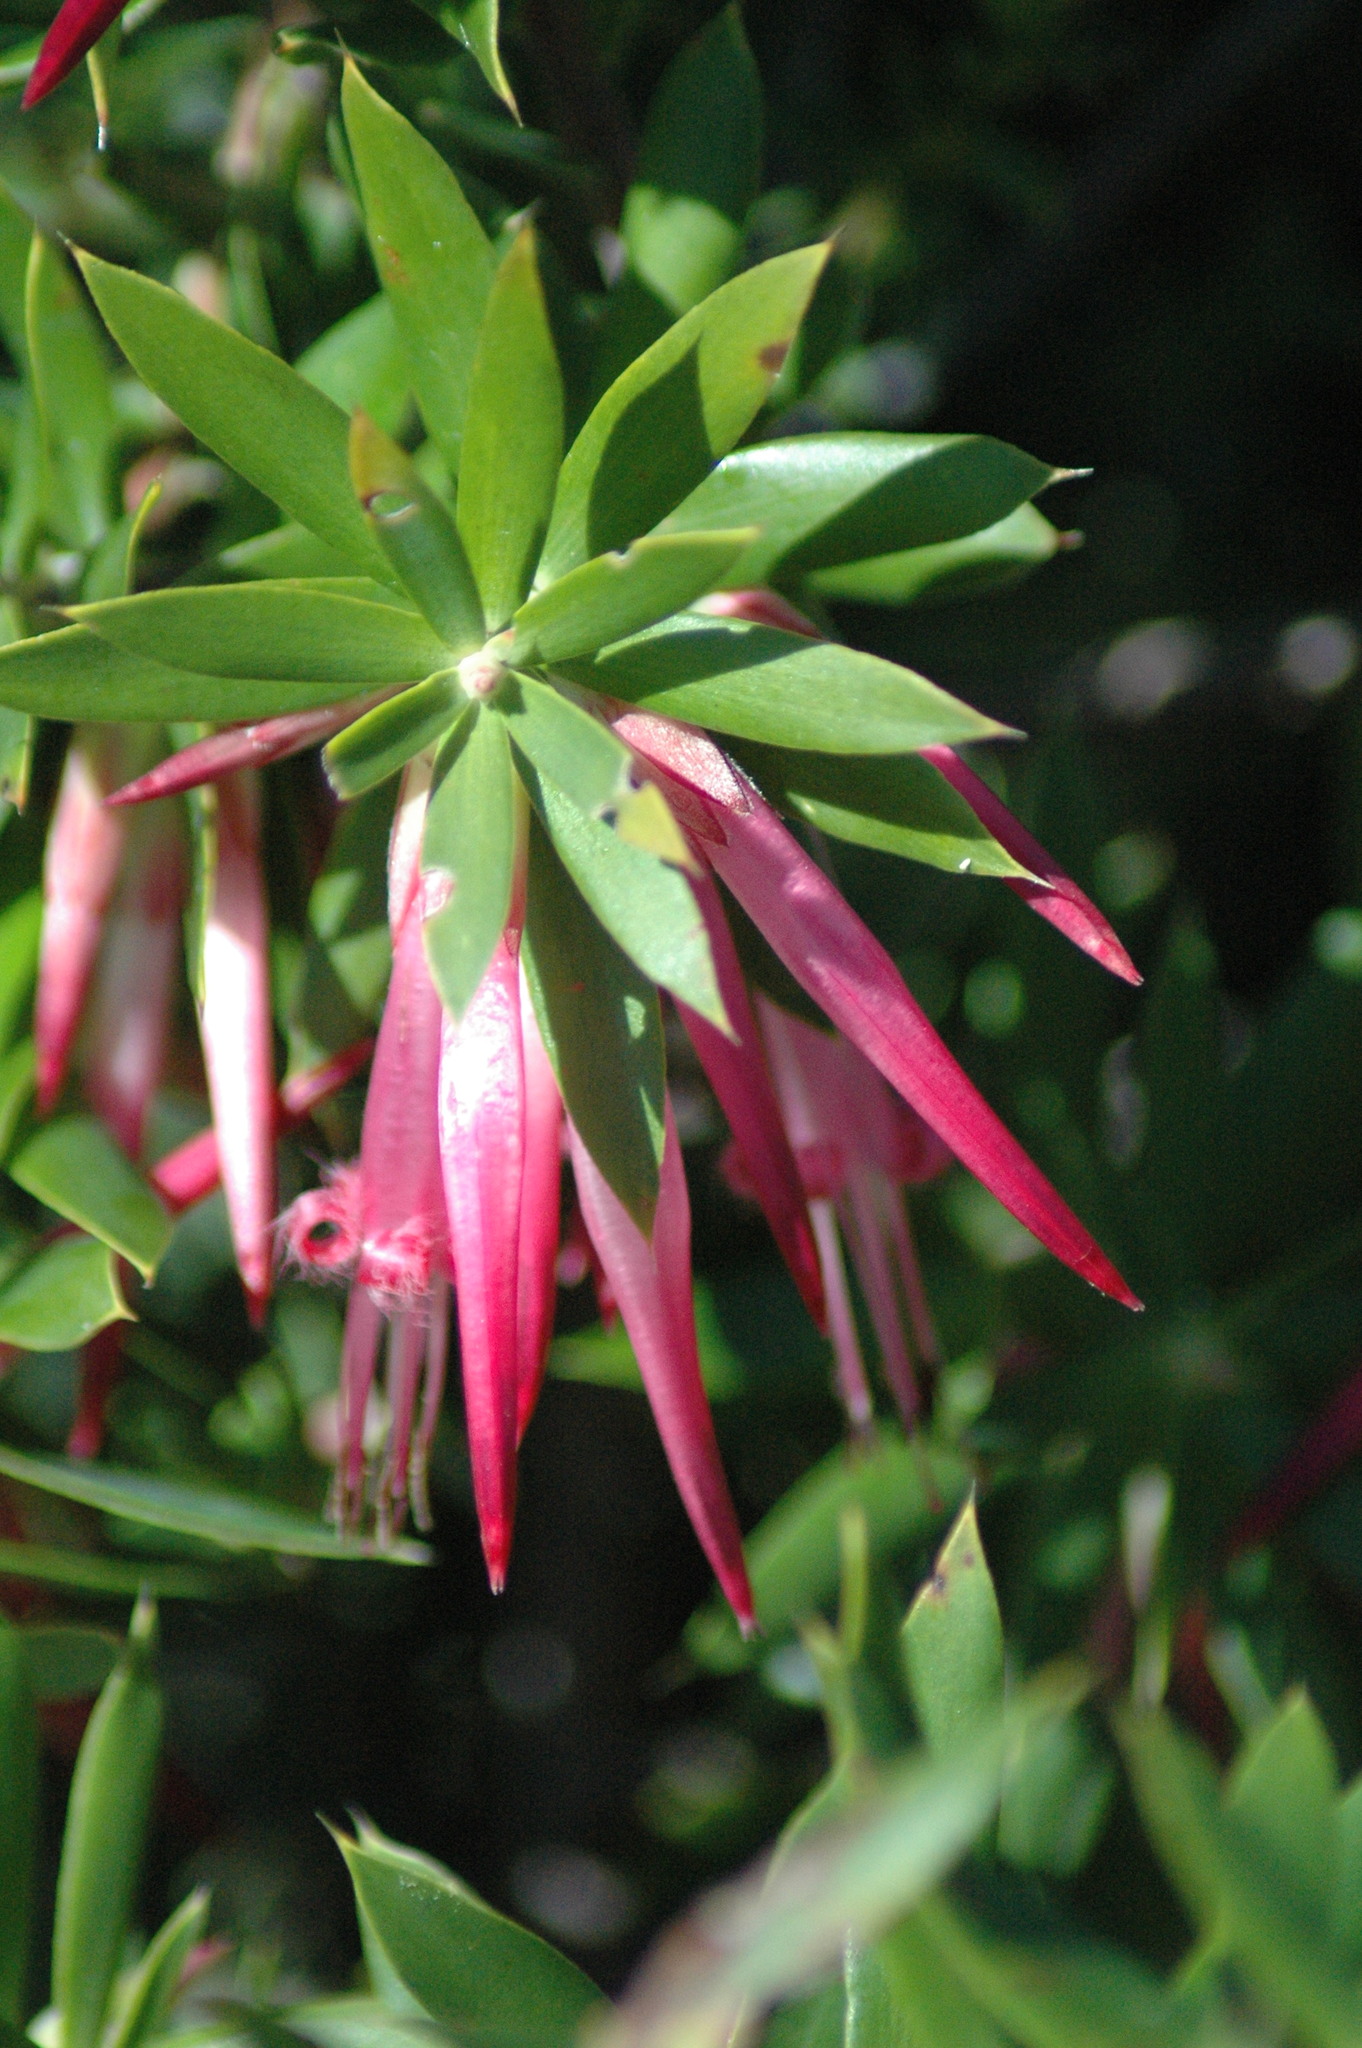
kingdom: Plantae
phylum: Tracheophyta
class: Magnoliopsida
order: Ericales
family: Ericaceae
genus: Styphelia
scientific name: Styphelia tubiflora
